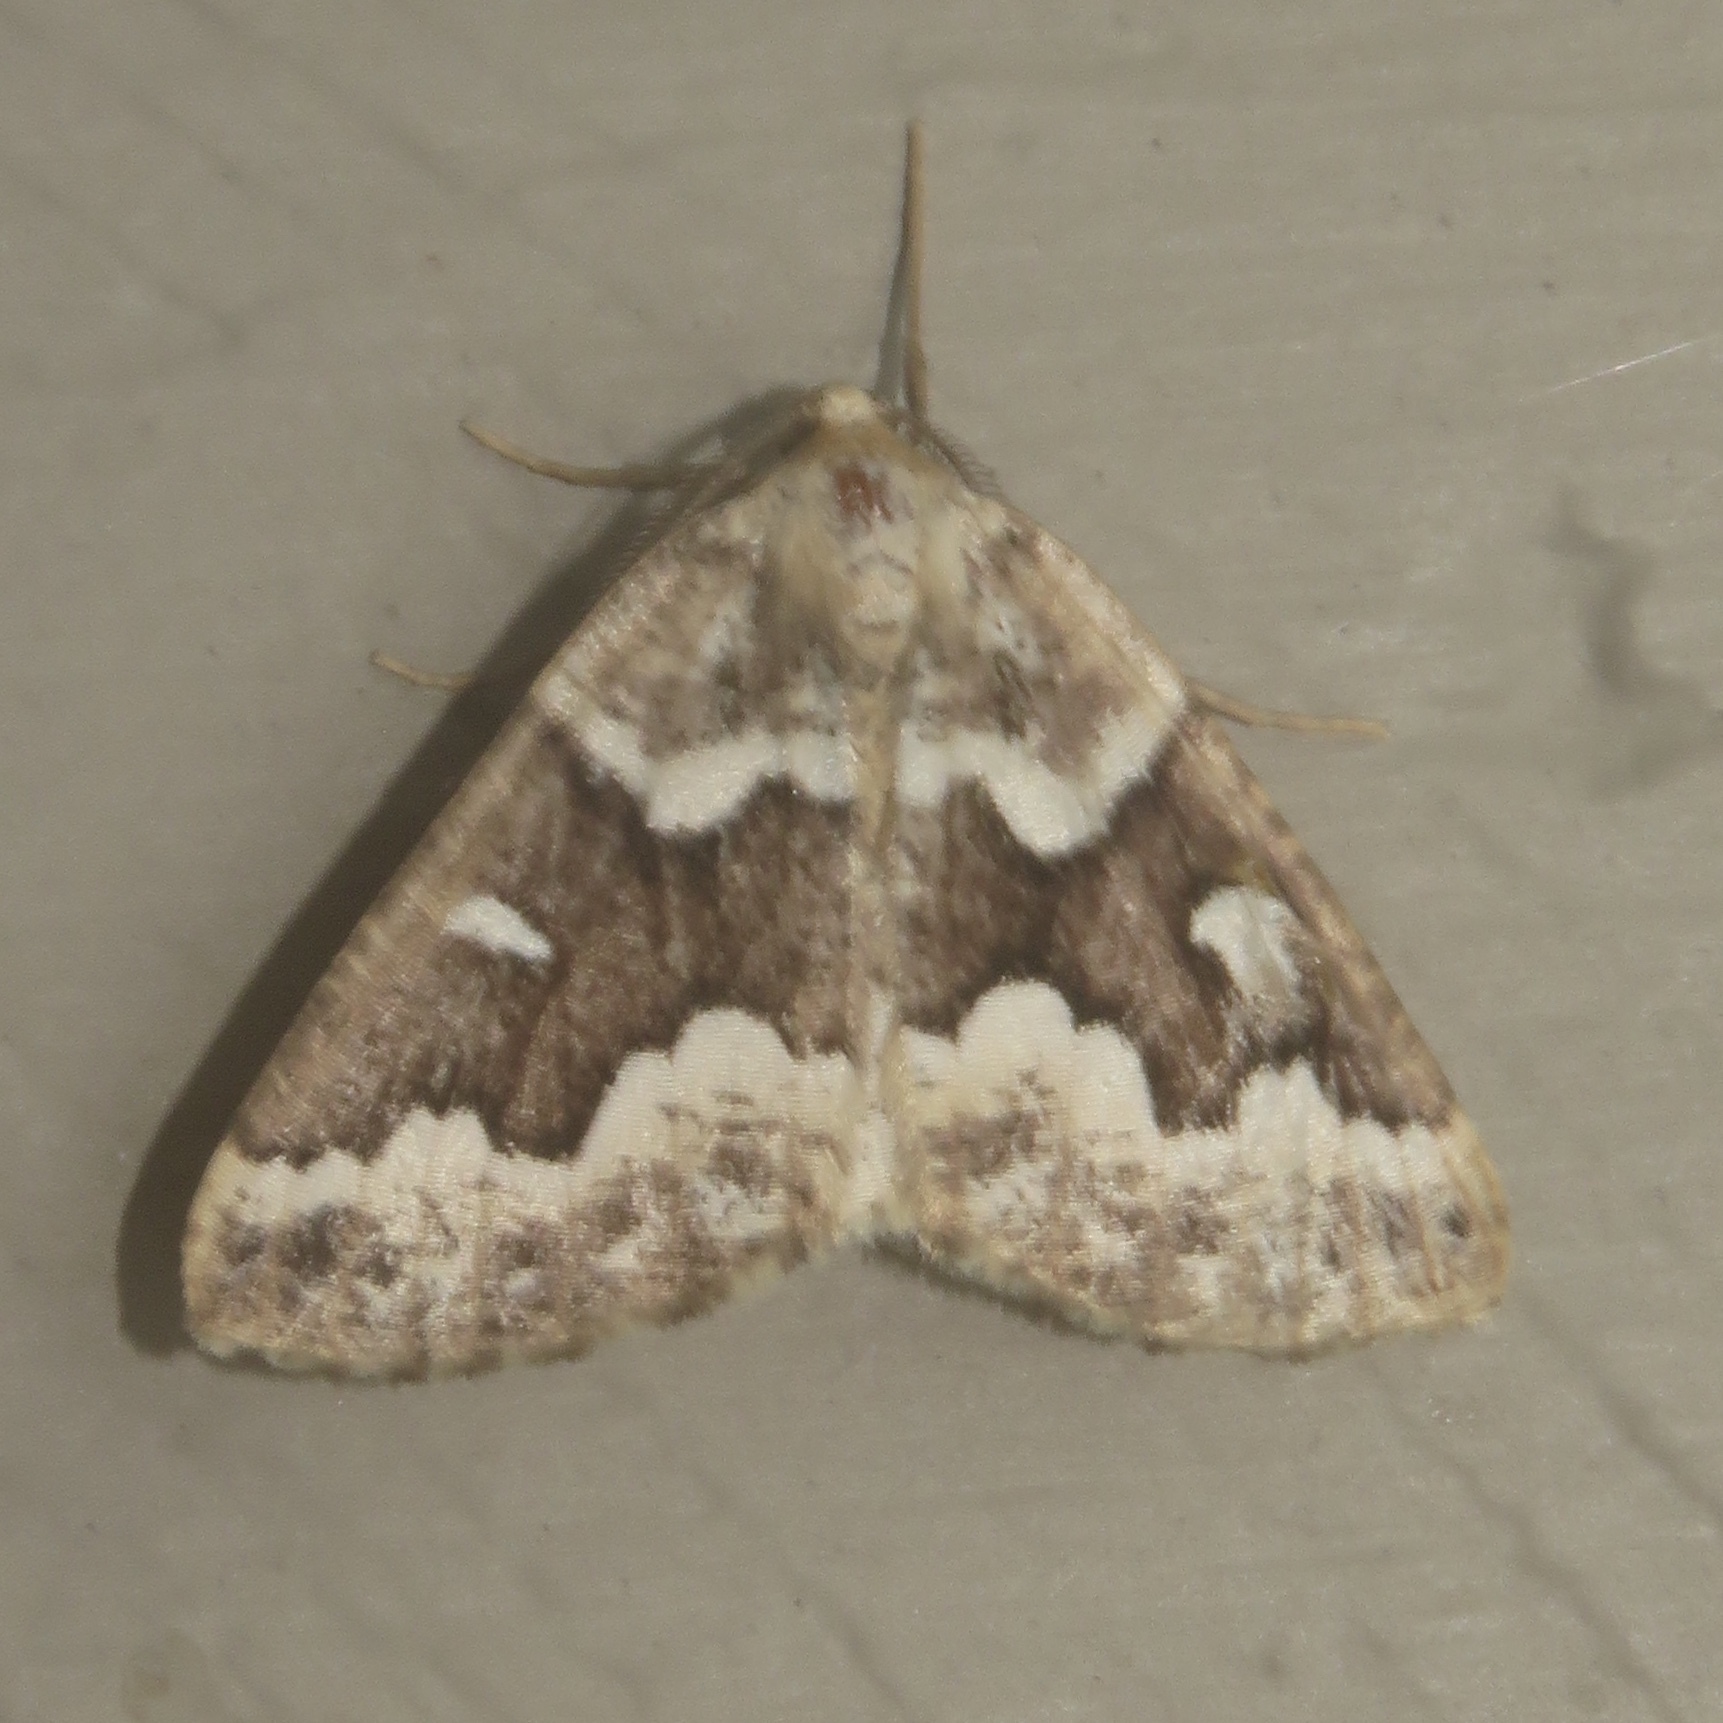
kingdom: Animalia
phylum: Arthropoda
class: Insecta
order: Lepidoptera
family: Geometridae
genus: Caripeta
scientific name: Caripeta divisata
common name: Gray spruce looper
